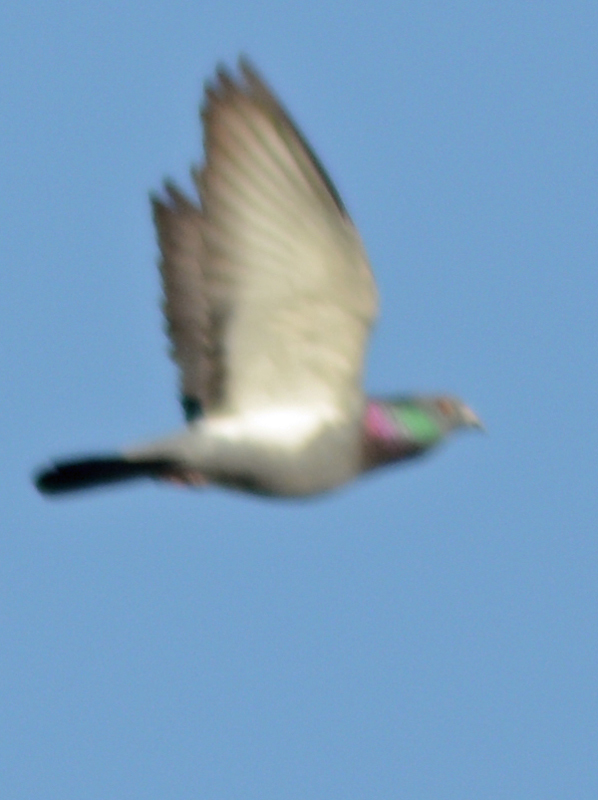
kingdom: Animalia
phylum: Chordata
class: Aves
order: Columbiformes
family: Columbidae
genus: Columba
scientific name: Columba livia
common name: Rock pigeon
